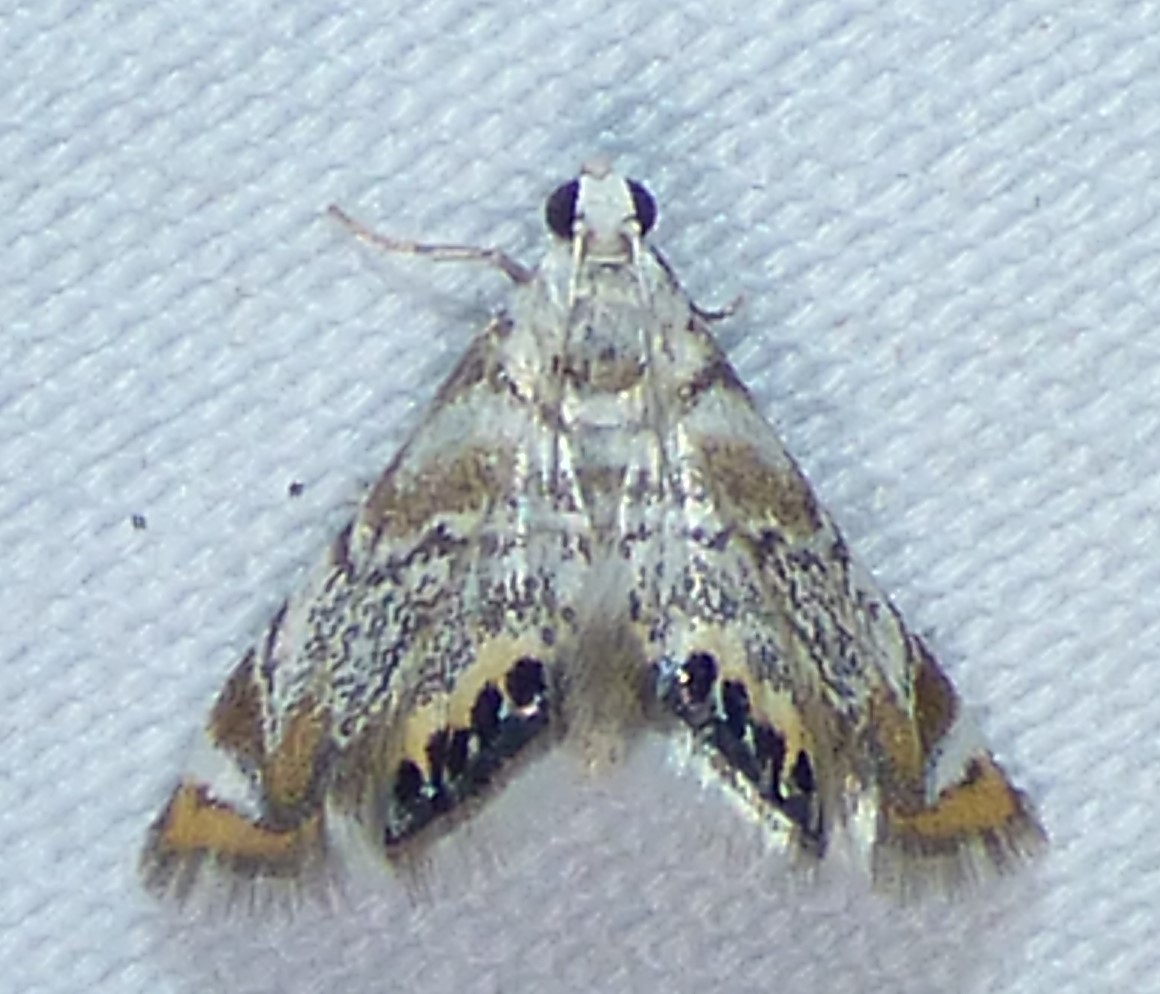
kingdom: Animalia
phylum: Arthropoda
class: Insecta
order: Lepidoptera
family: Crambidae
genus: Eoparargyractis
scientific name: Eoparargyractis irroratalis
